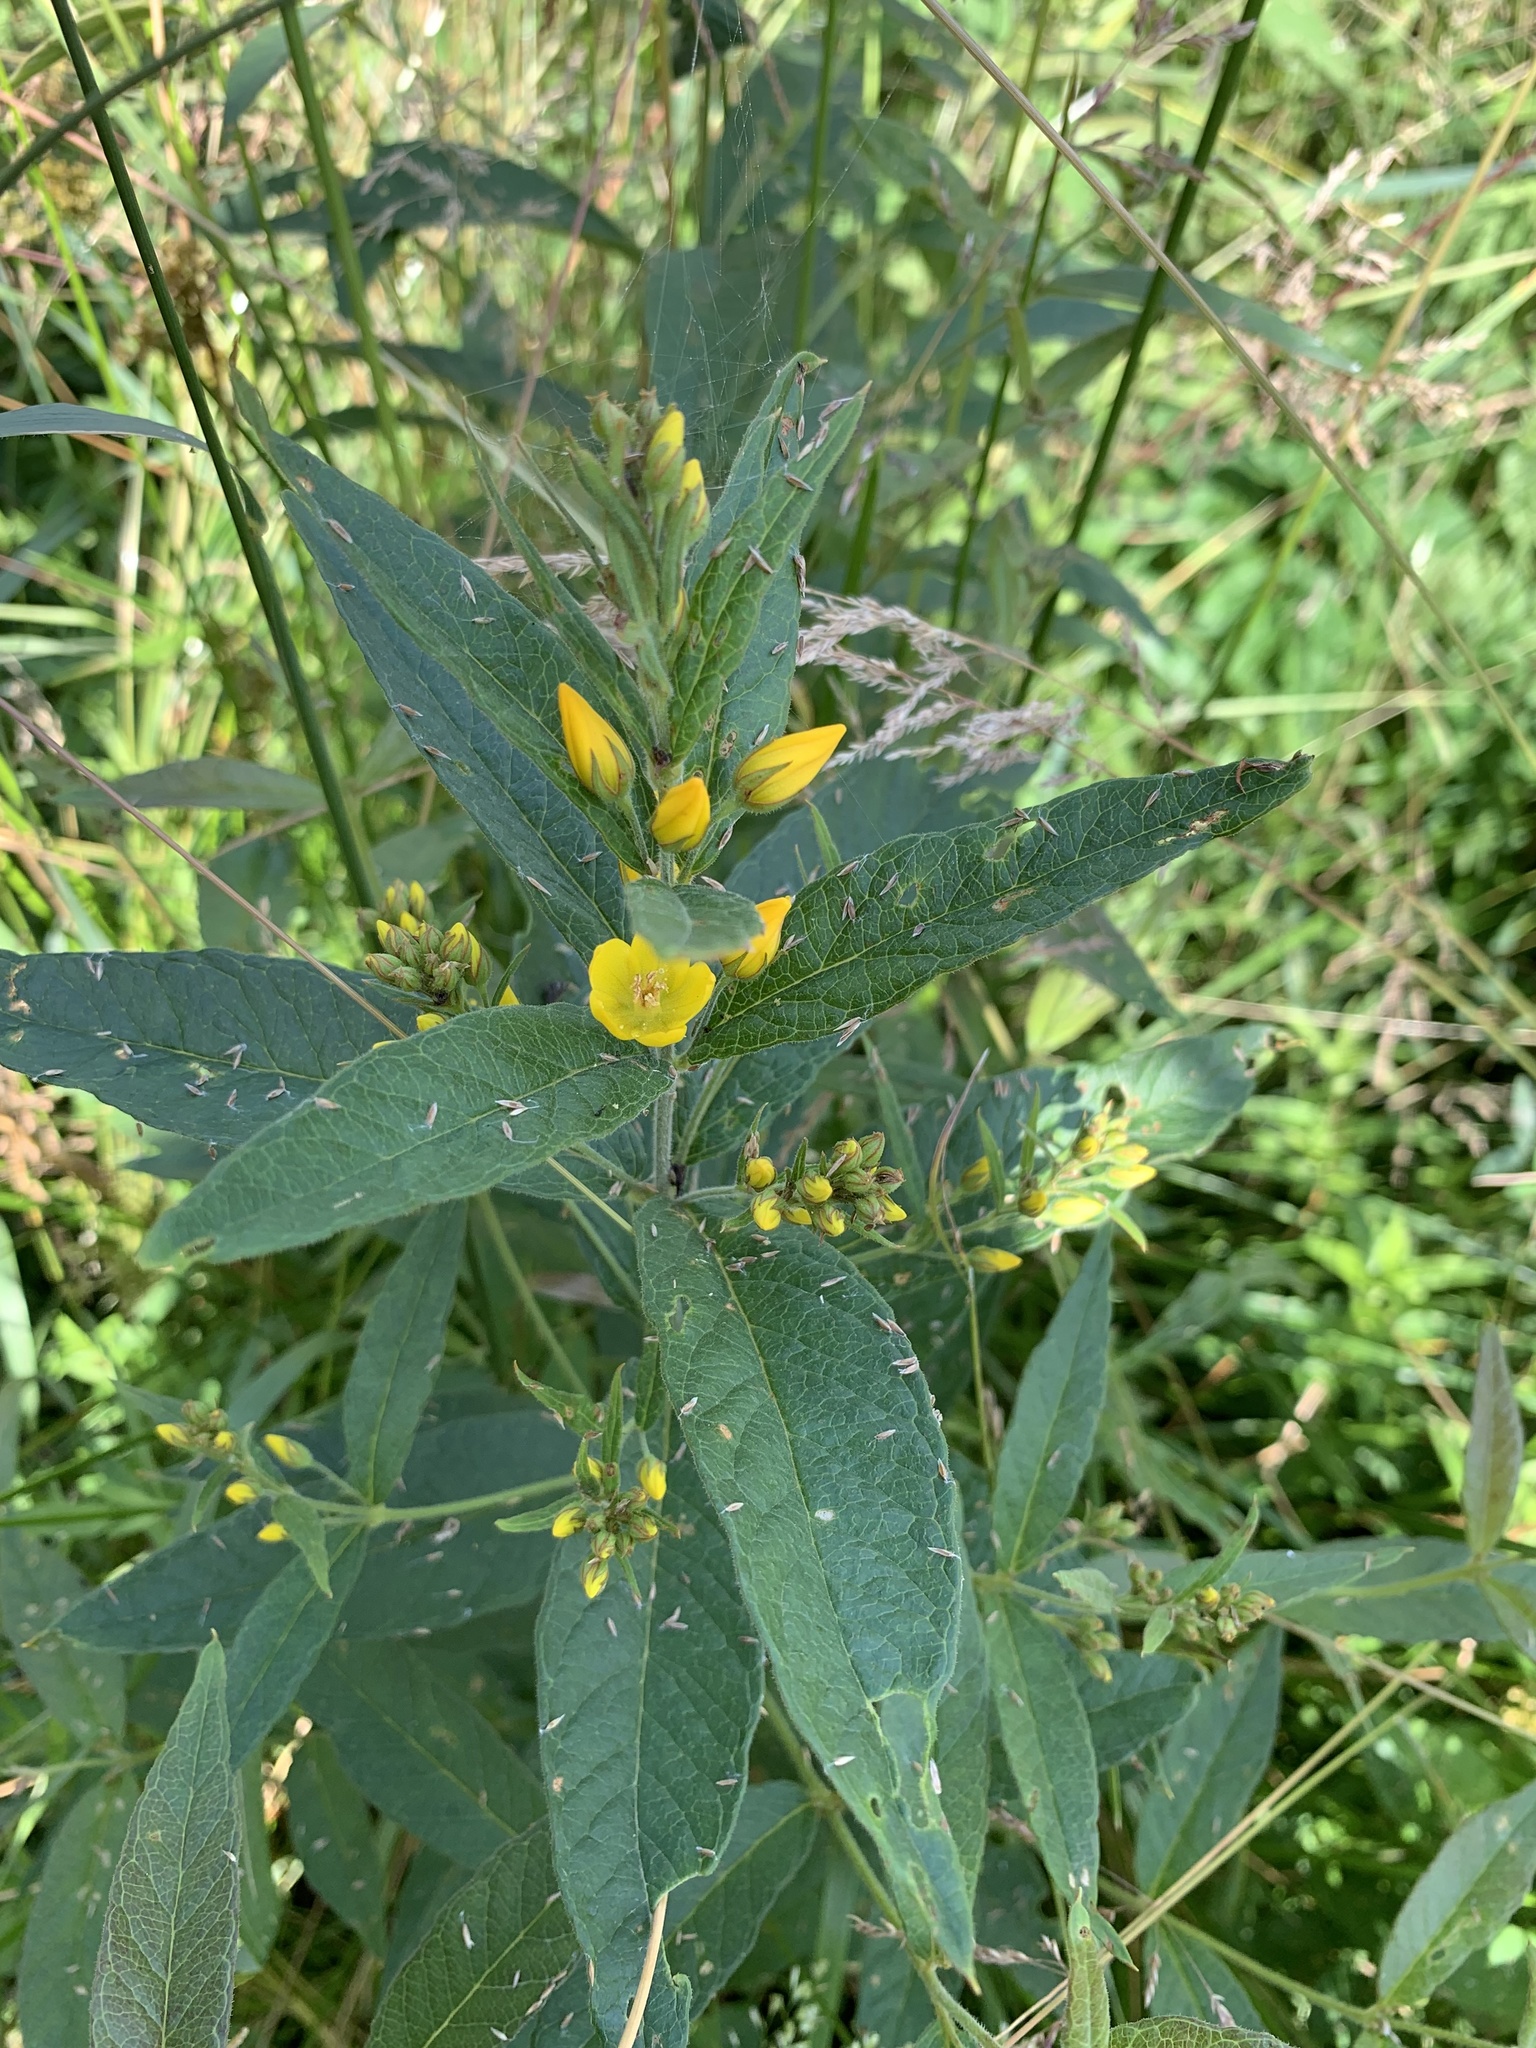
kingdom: Plantae
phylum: Tracheophyta
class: Magnoliopsida
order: Ericales
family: Primulaceae
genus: Lysimachia
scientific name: Lysimachia vulgaris
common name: Yellow loosestrife
